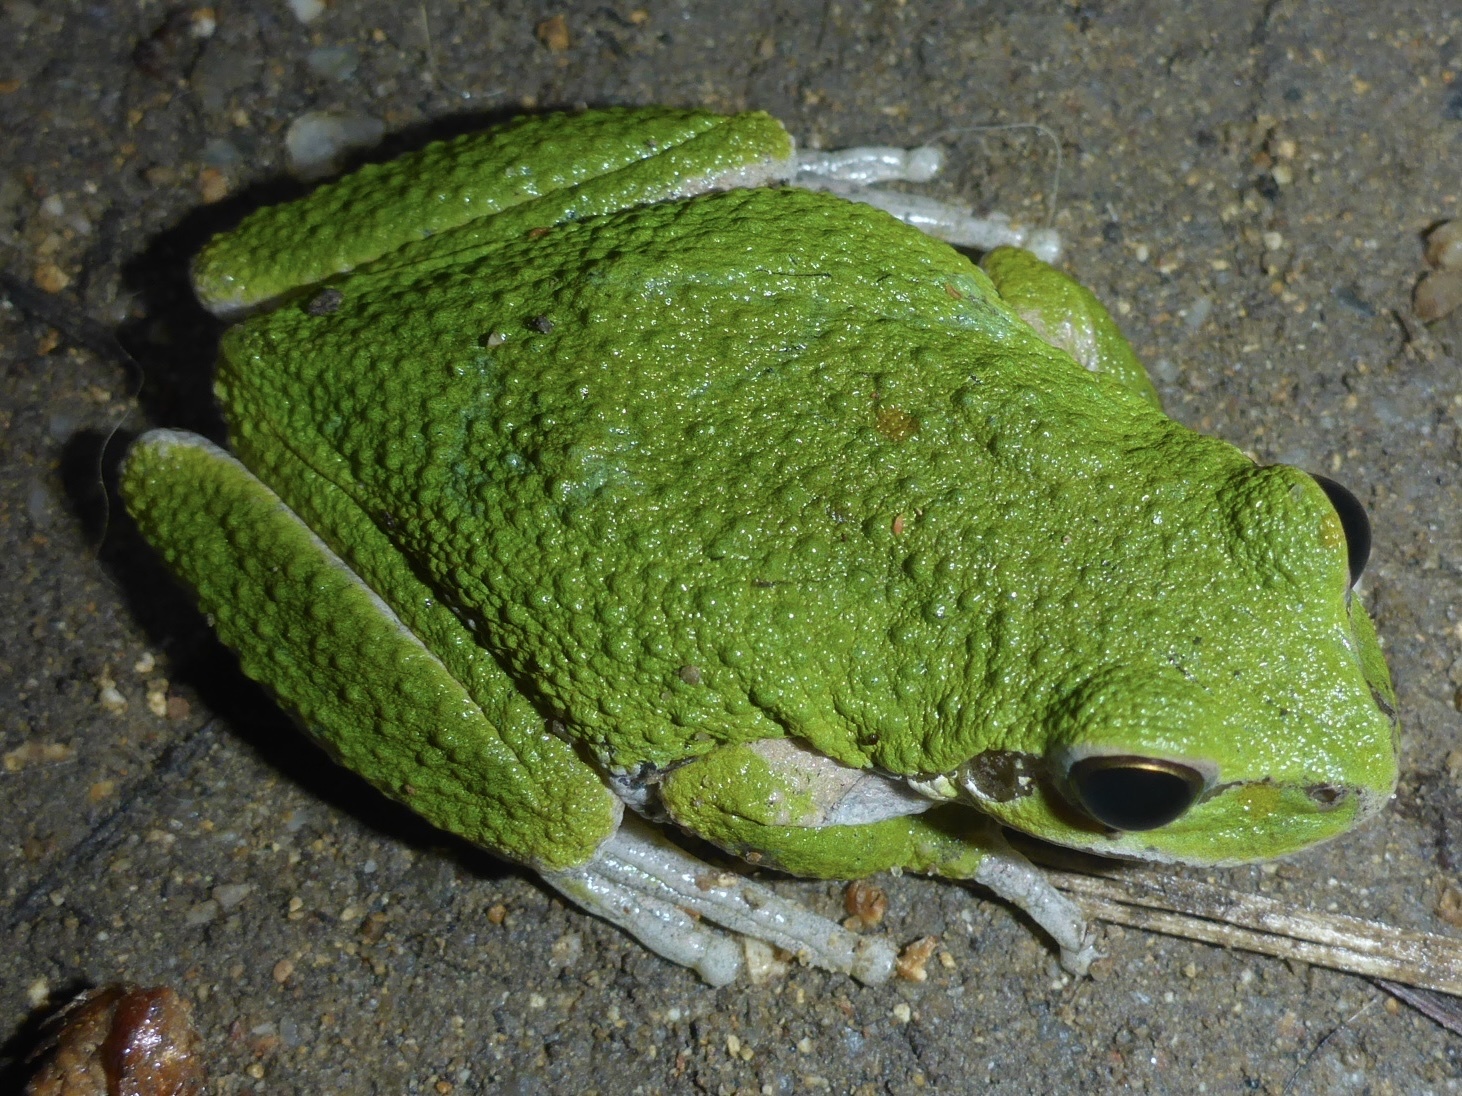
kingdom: Animalia
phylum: Chordata
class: Amphibia
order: Anura
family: Hylidae
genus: Pseudacris
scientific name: Pseudacris regilla
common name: Pacific chorus frog
